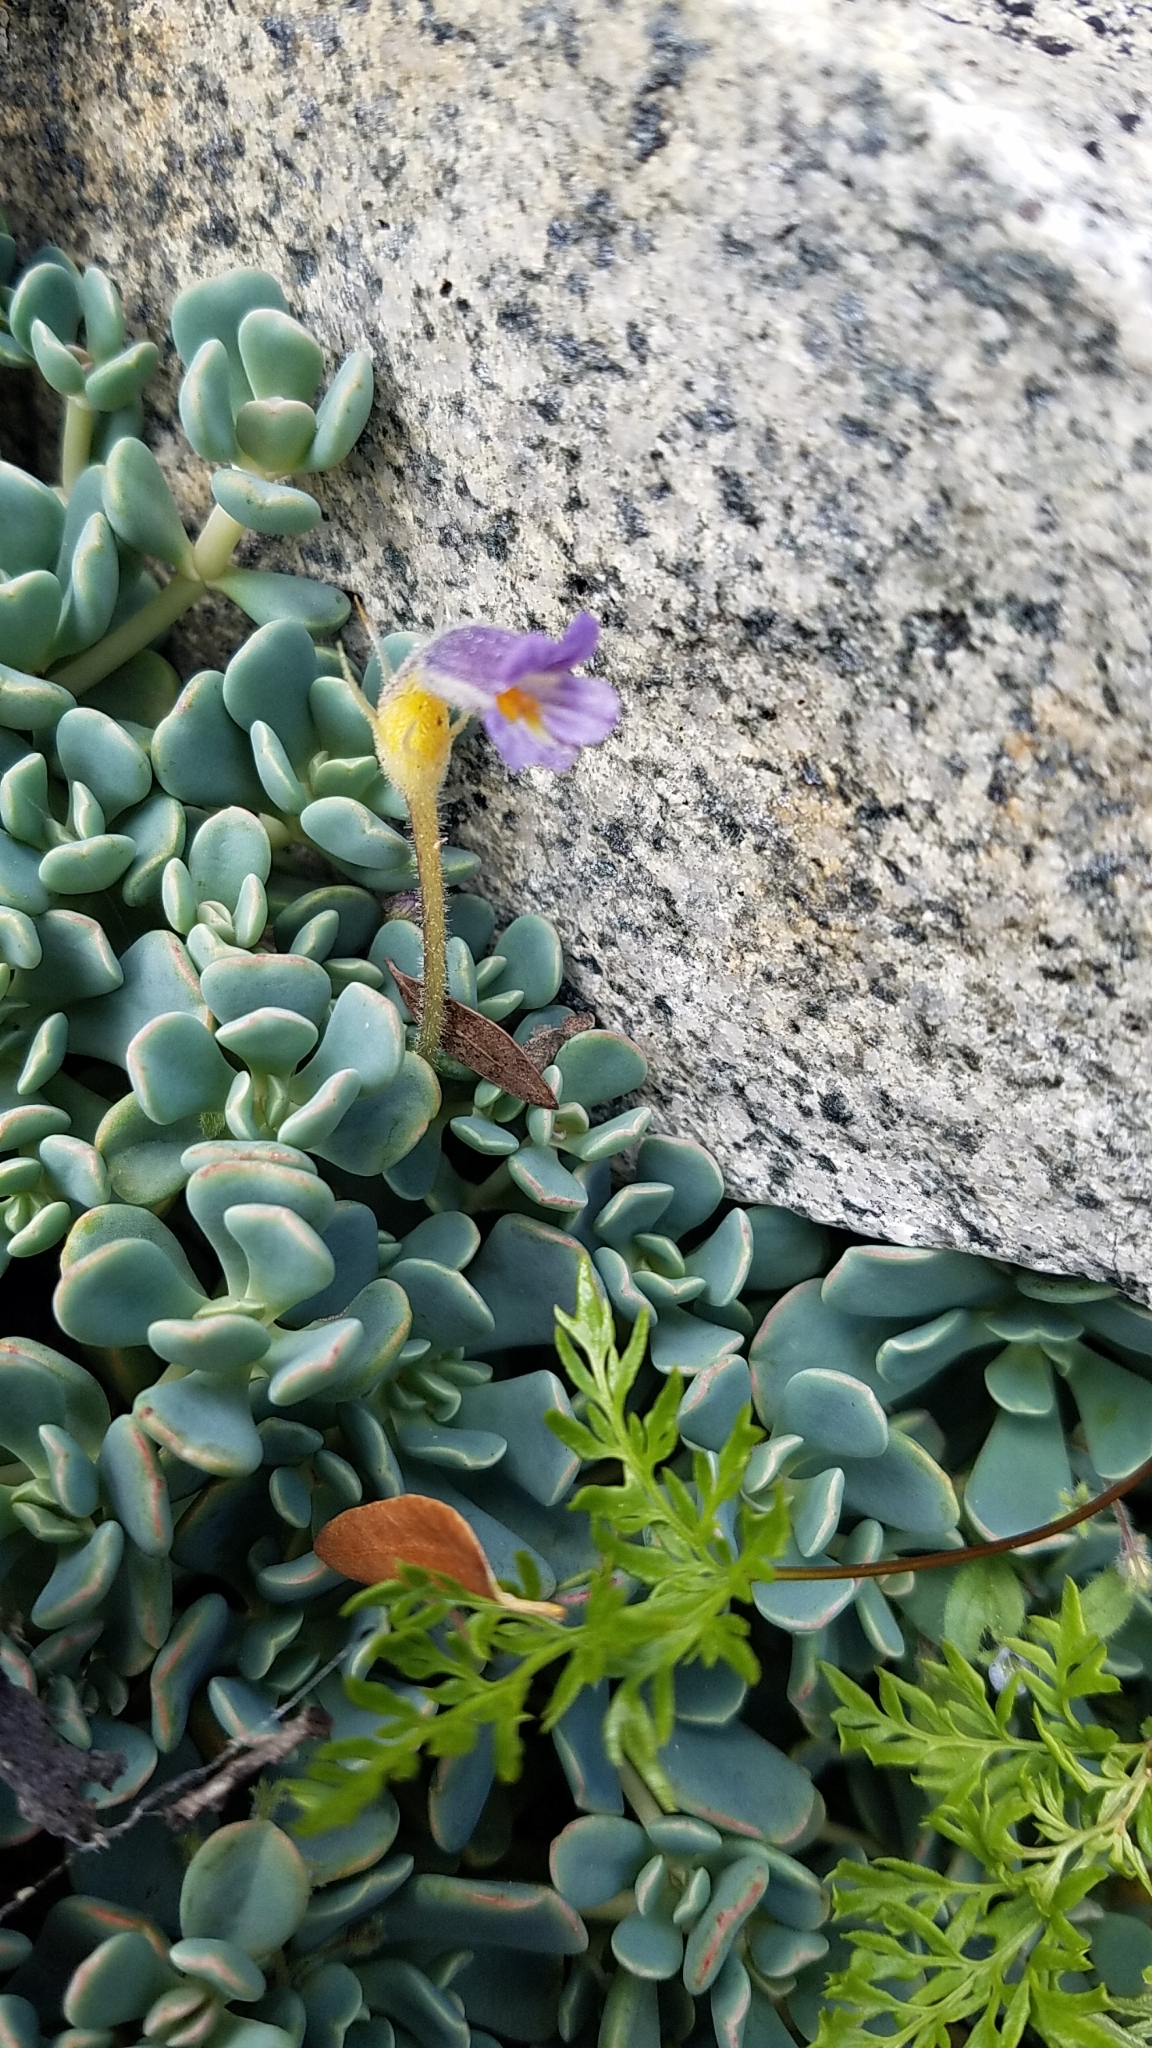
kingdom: Plantae
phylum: Tracheophyta
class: Magnoliopsida
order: Lamiales
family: Orobanchaceae
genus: Aphyllon
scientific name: Aphyllon uniflorum
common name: One-flowered broomrape
